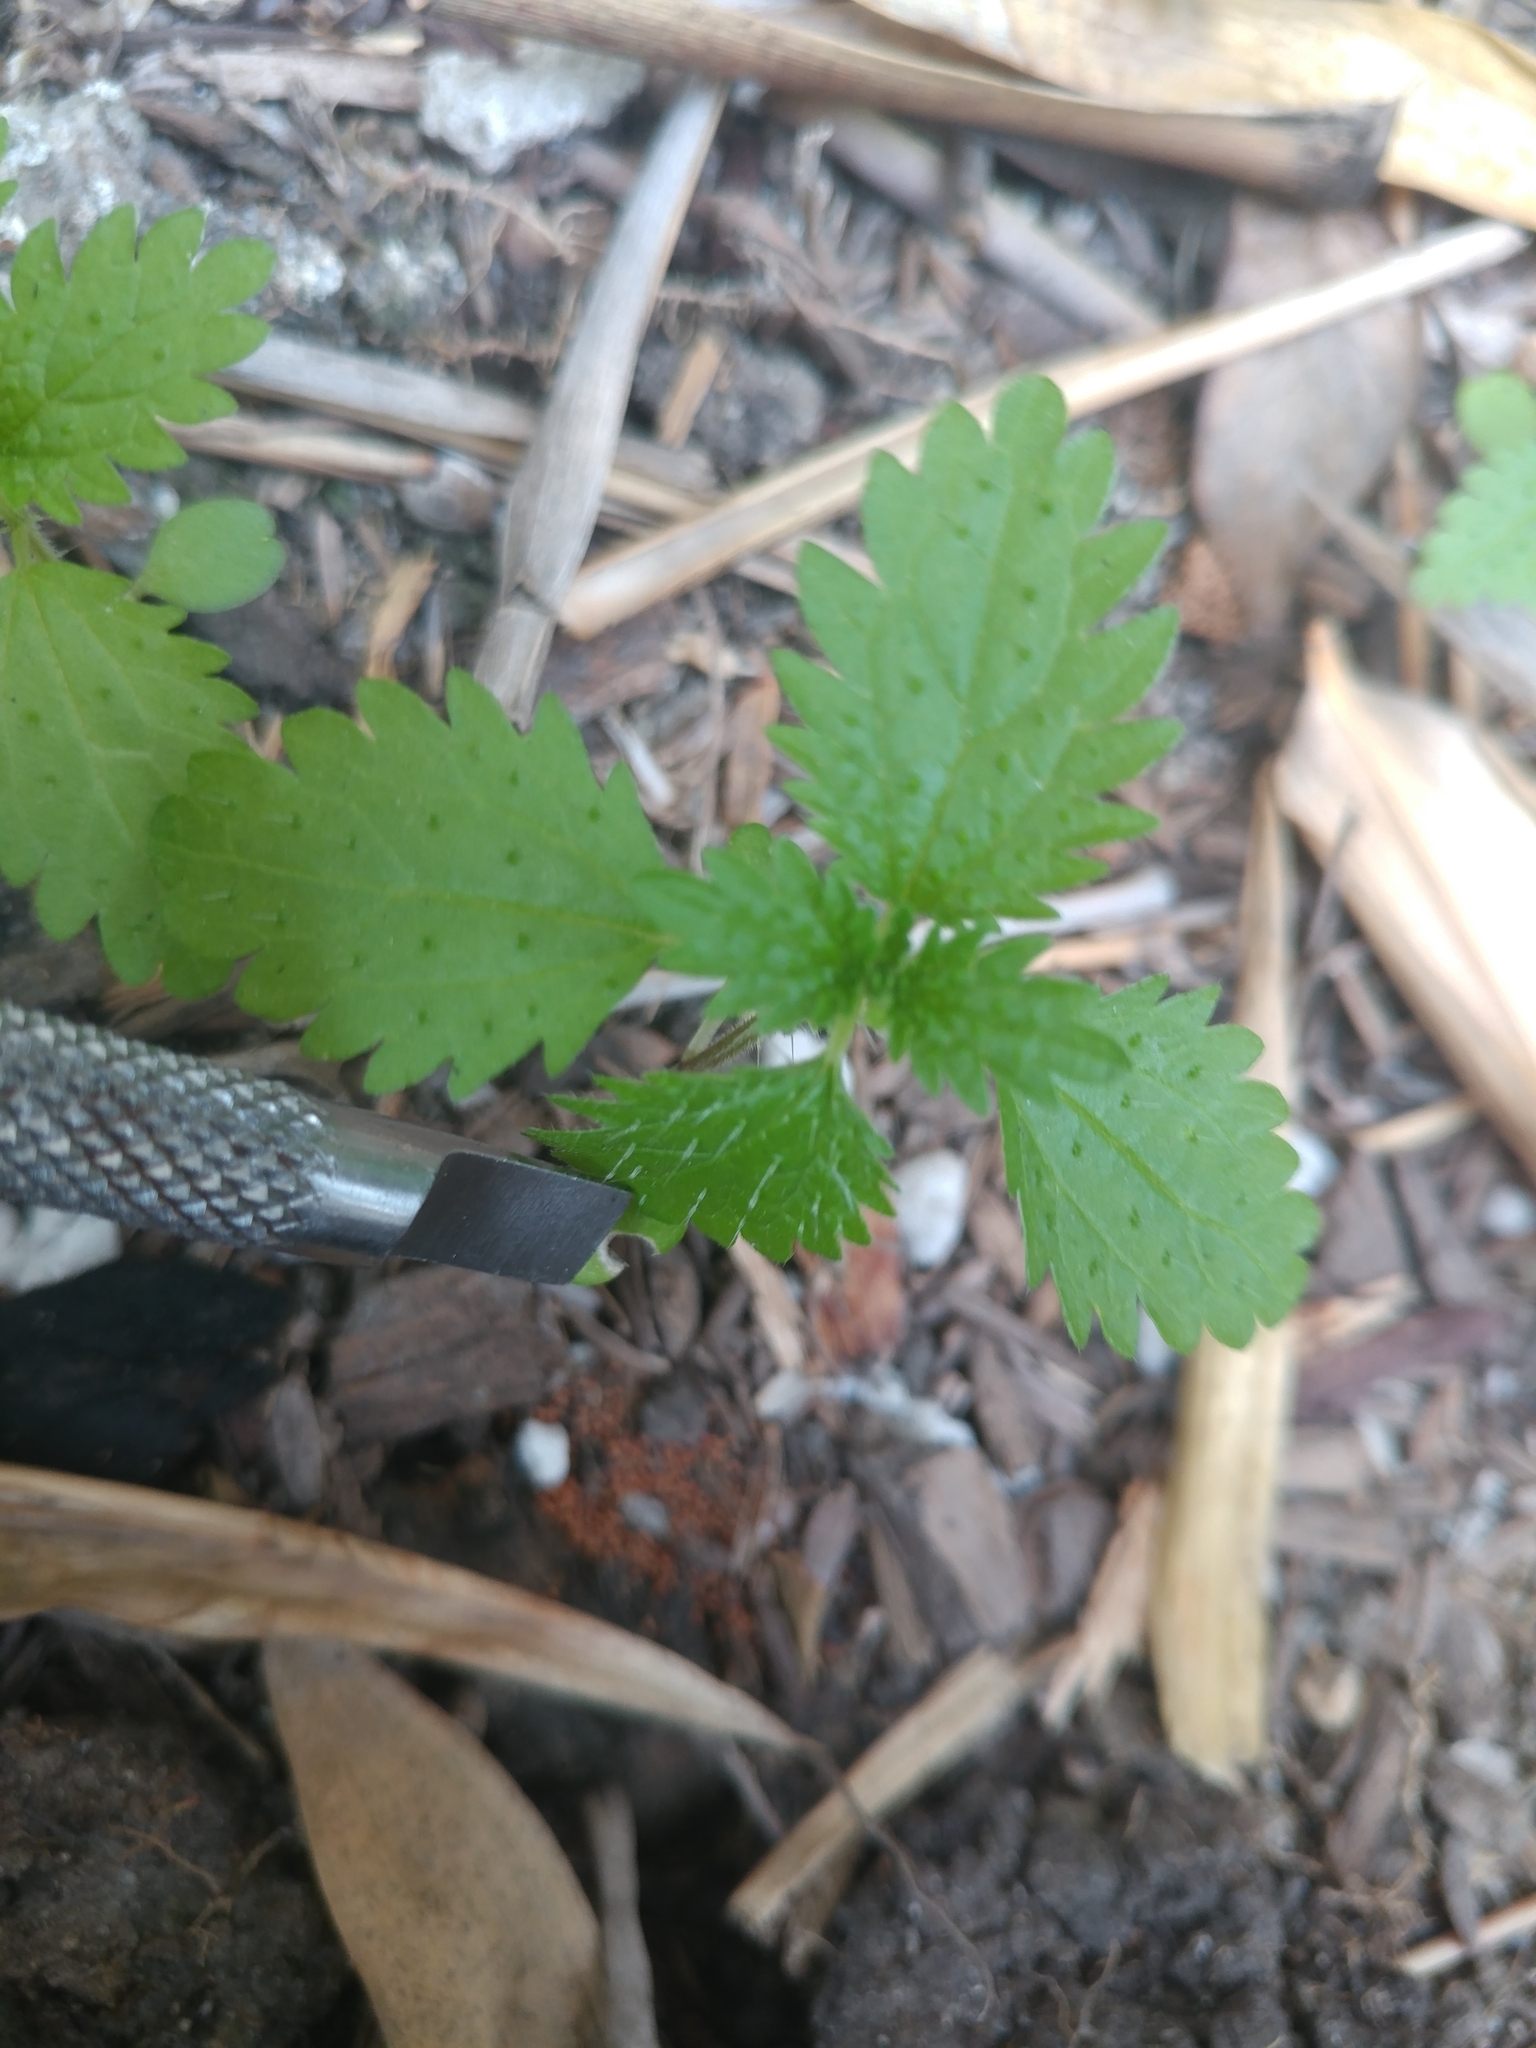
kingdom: Plantae
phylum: Tracheophyta
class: Magnoliopsida
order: Rosales
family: Urticaceae
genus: Urtica
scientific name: Urtica urens
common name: Dwarf nettle
